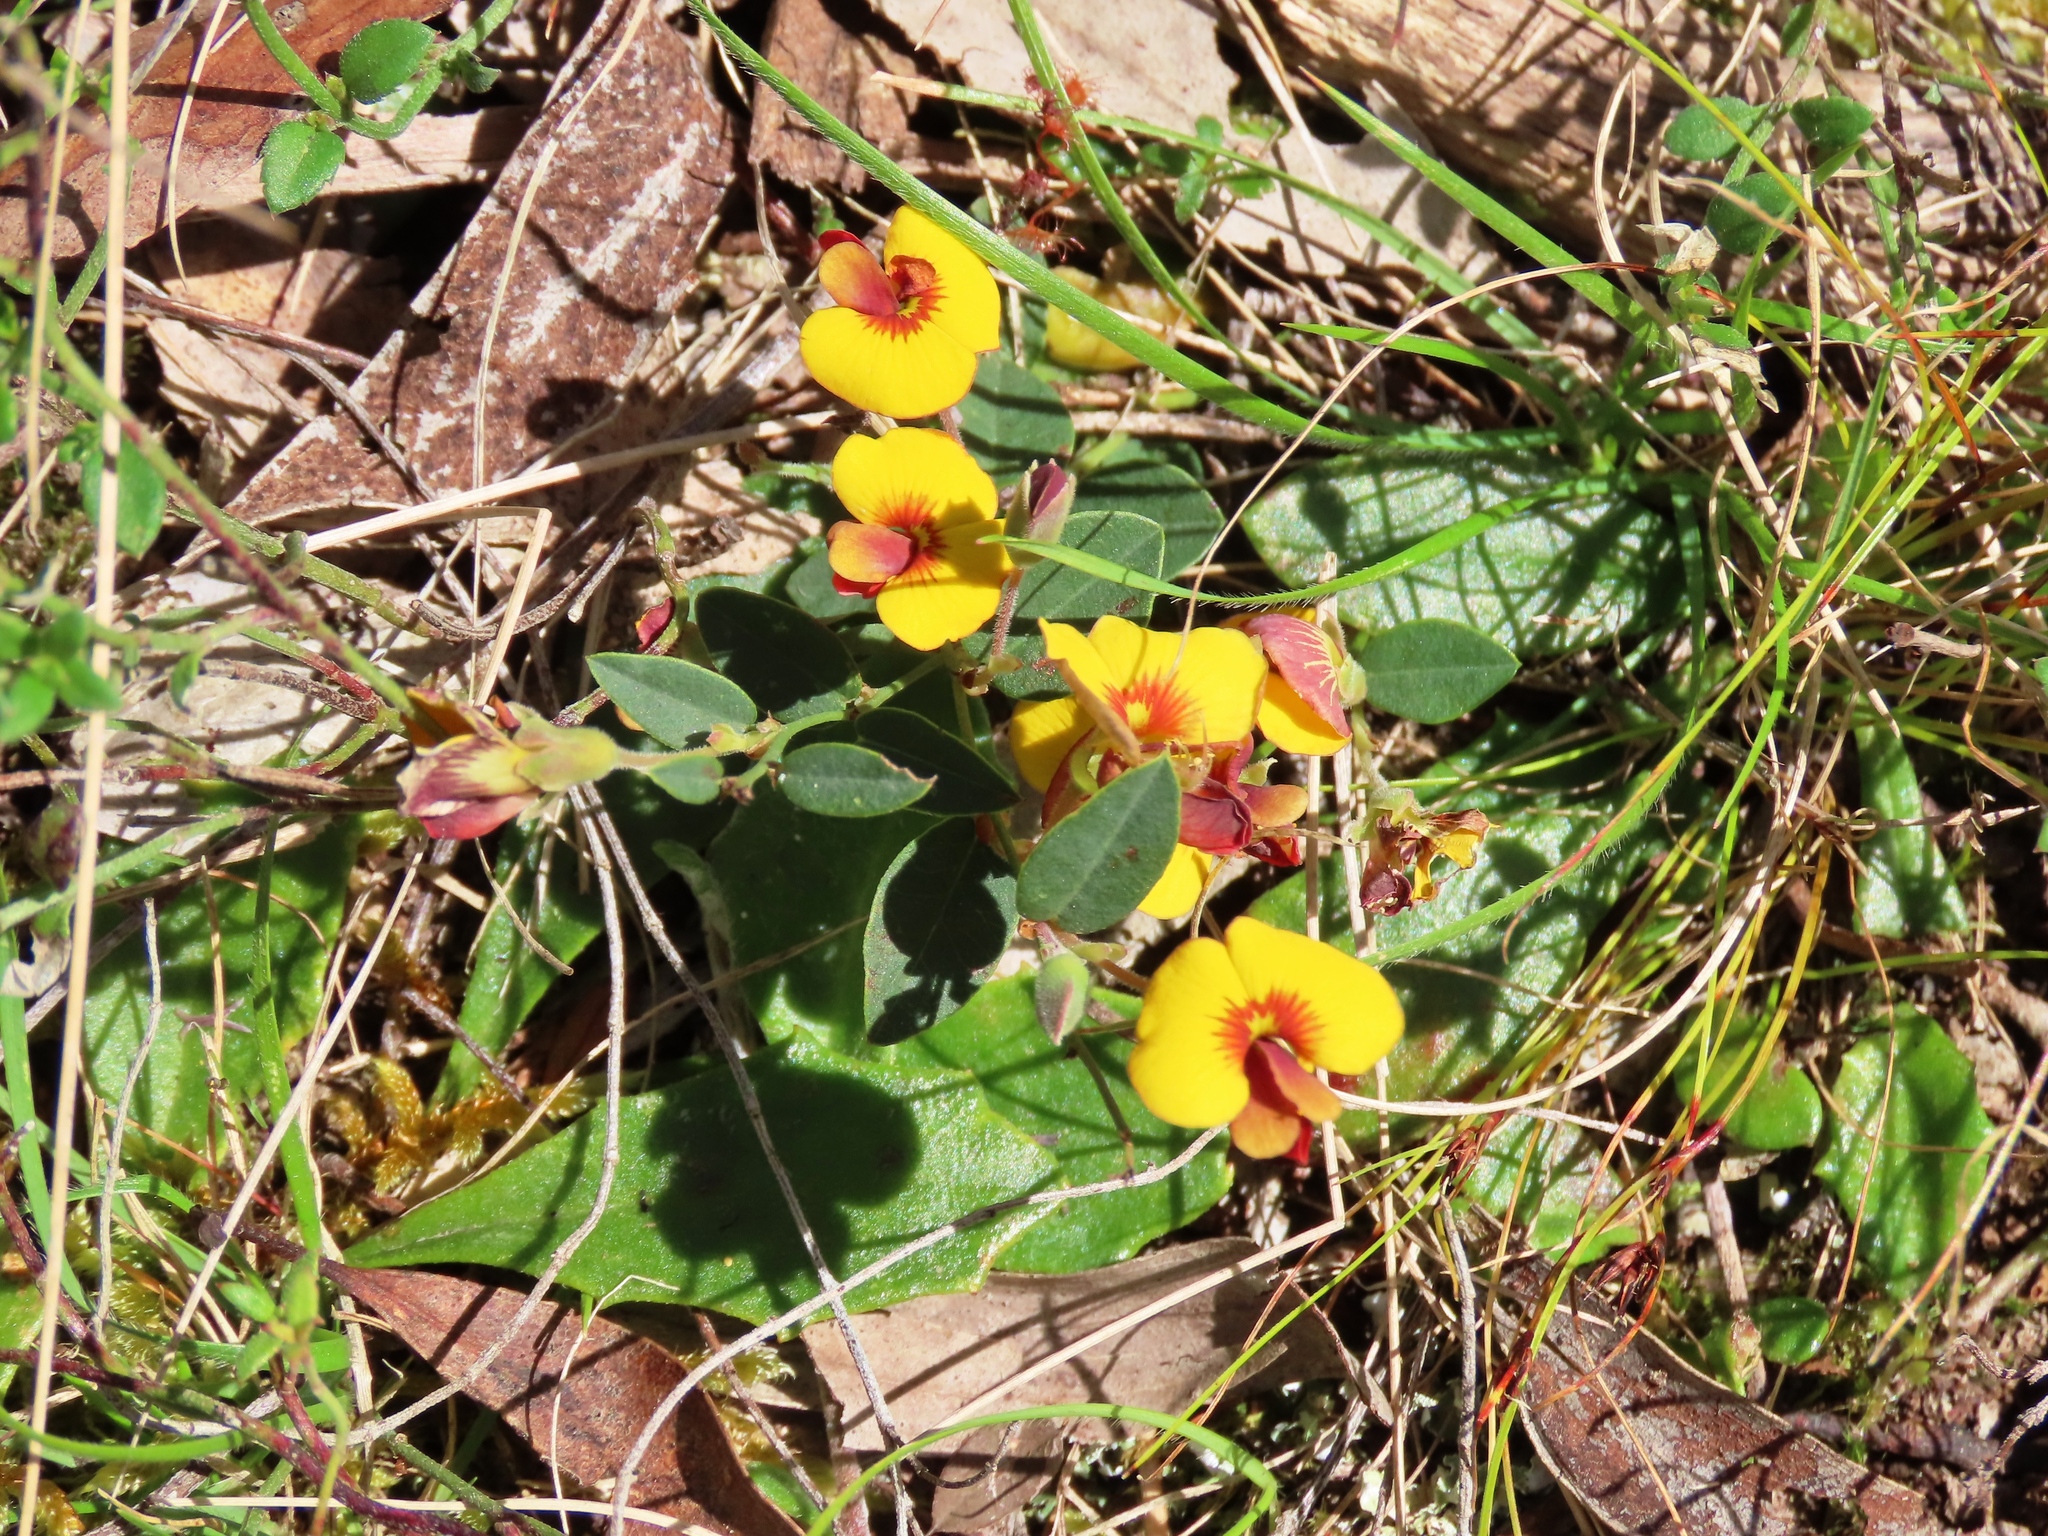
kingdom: Plantae
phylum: Tracheophyta
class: Magnoliopsida
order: Fabales
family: Fabaceae
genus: Bossiaea
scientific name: Bossiaea prostrata
